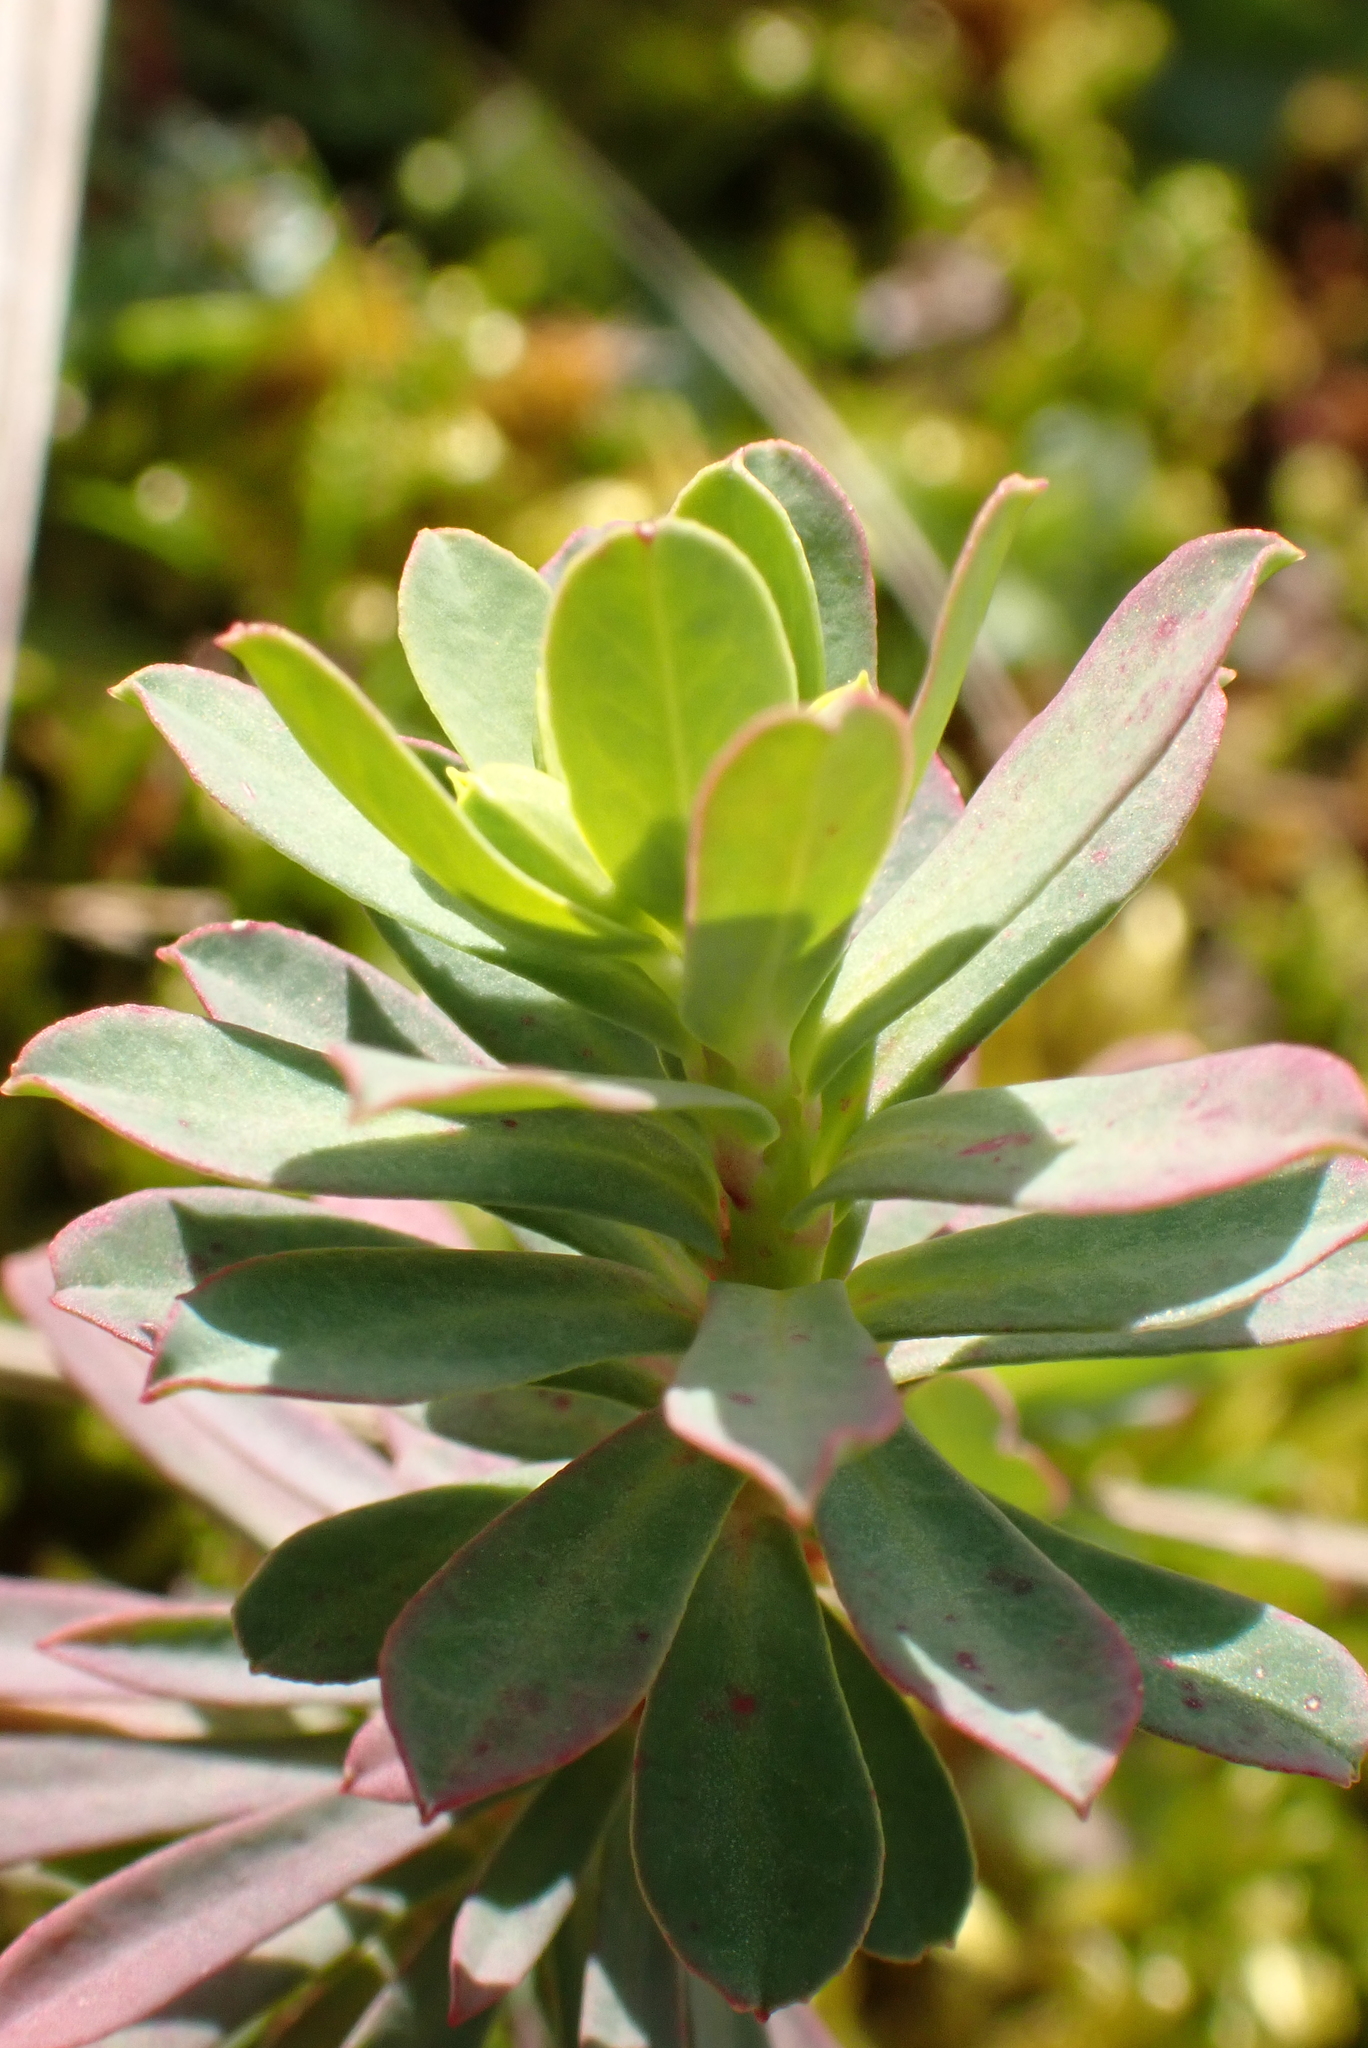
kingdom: Plantae
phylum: Tracheophyta
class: Magnoliopsida
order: Malpighiales
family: Euphorbiaceae
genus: Euphorbia
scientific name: Euphorbia portlandica
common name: Portland spurge
